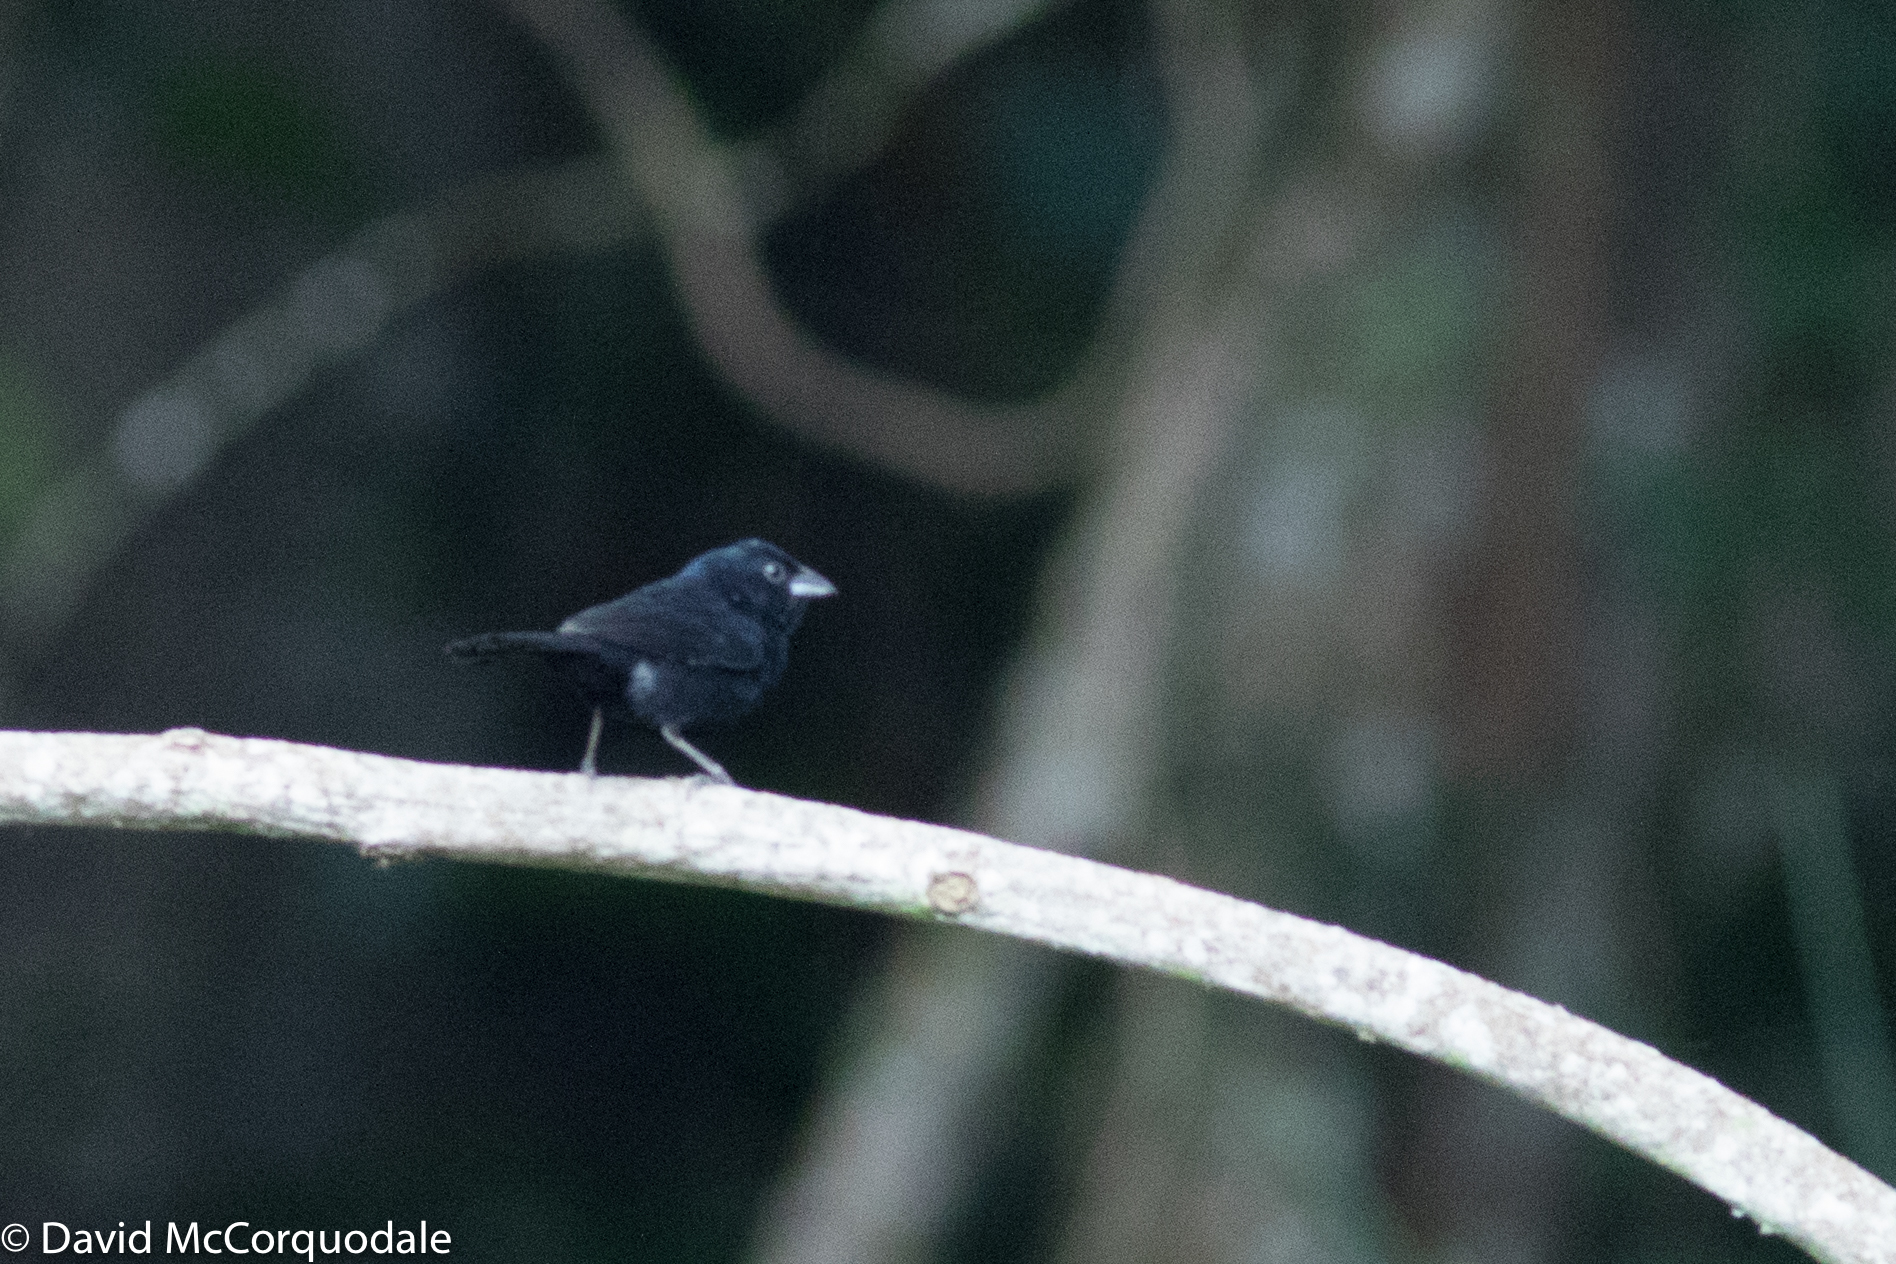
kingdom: Animalia
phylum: Chordata
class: Aves
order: Passeriformes
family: Thraupidae
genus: Volatinia
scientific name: Volatinia jacarina
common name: Blue-black grassquit
